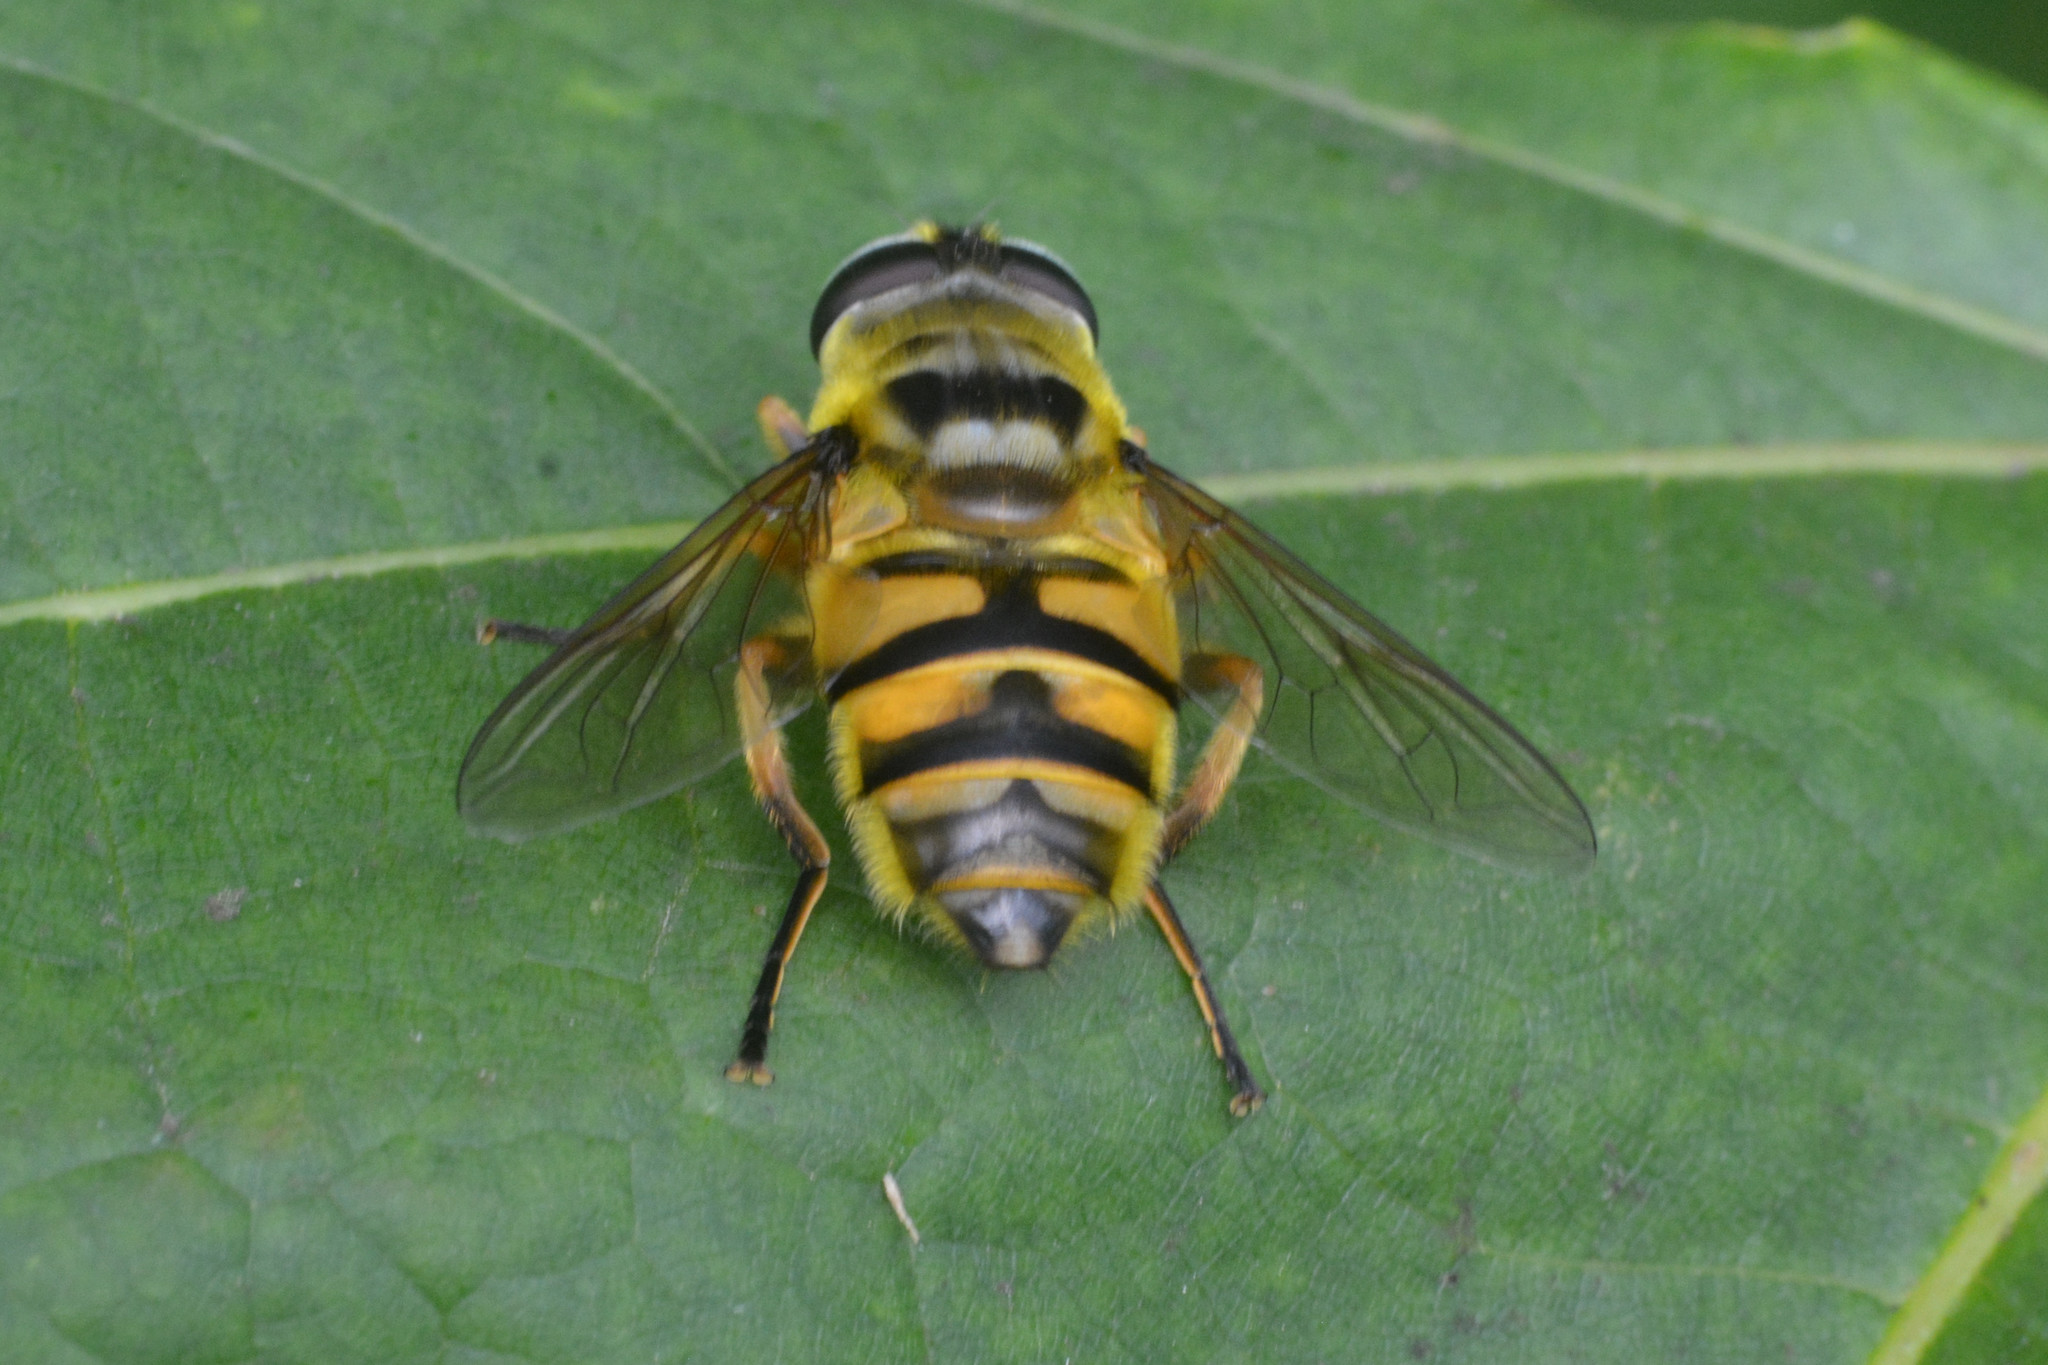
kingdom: Animalia
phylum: Arthropoda
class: Insecta
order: Diptera
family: Syrphidae
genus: Myathropa
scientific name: Myathropa florea
